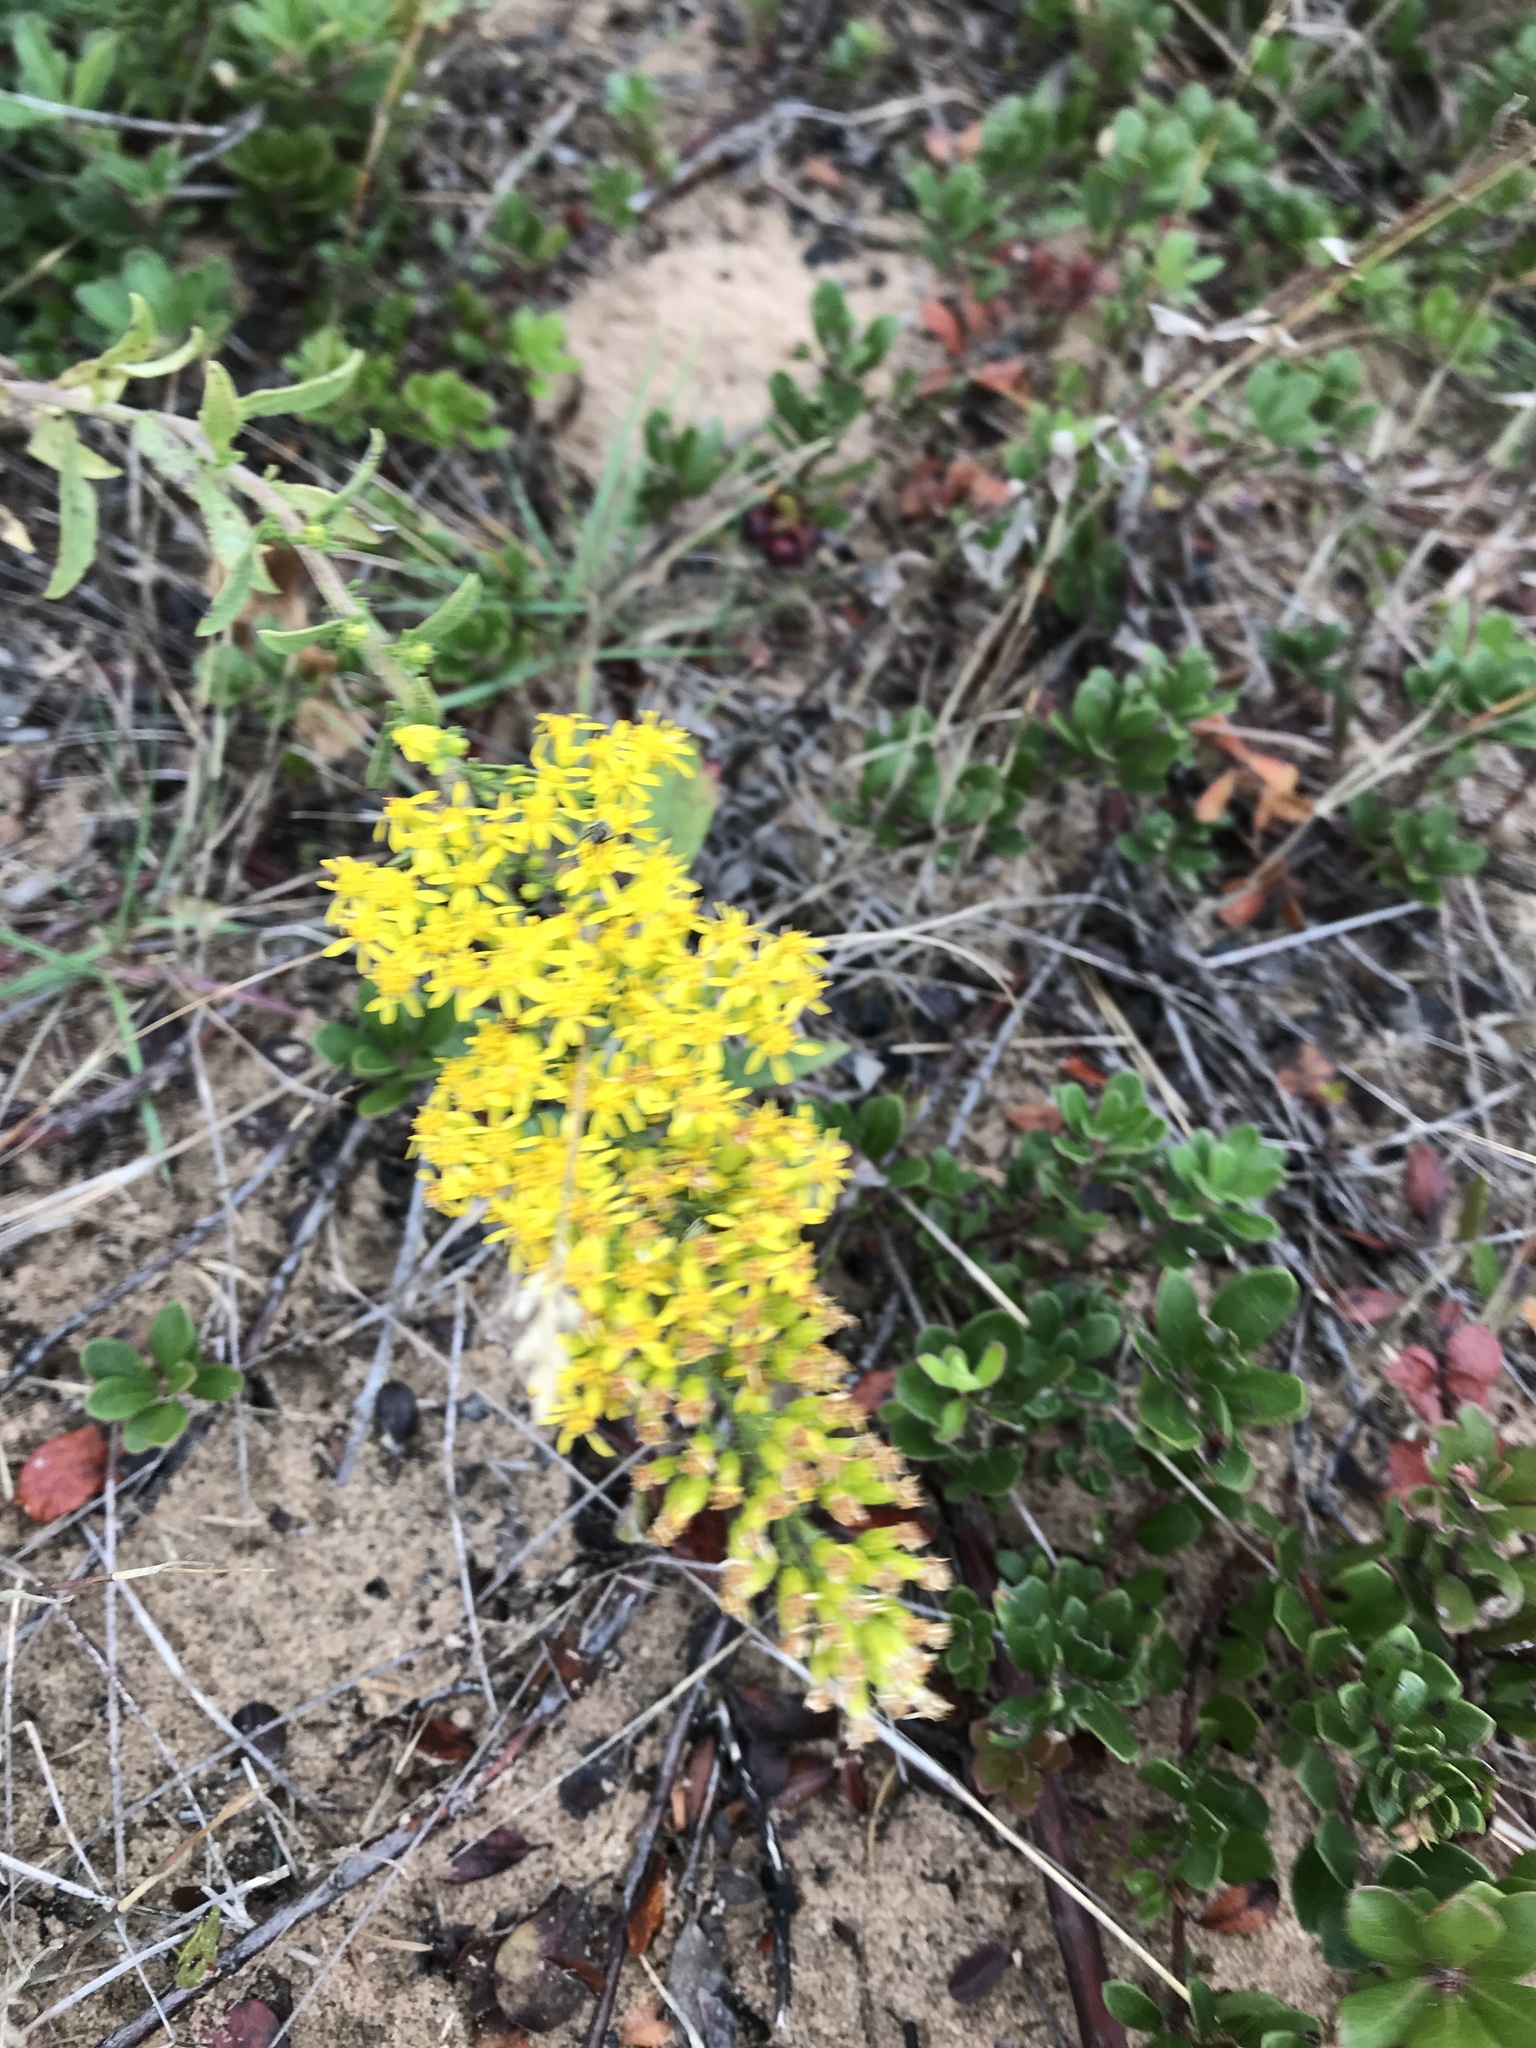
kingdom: Plantae
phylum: Tracheophyta
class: Magnoliopsida
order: Asterales
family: Asteraceae
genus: Solidago
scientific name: Solidago nemoralis
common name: Grey goldenrod
